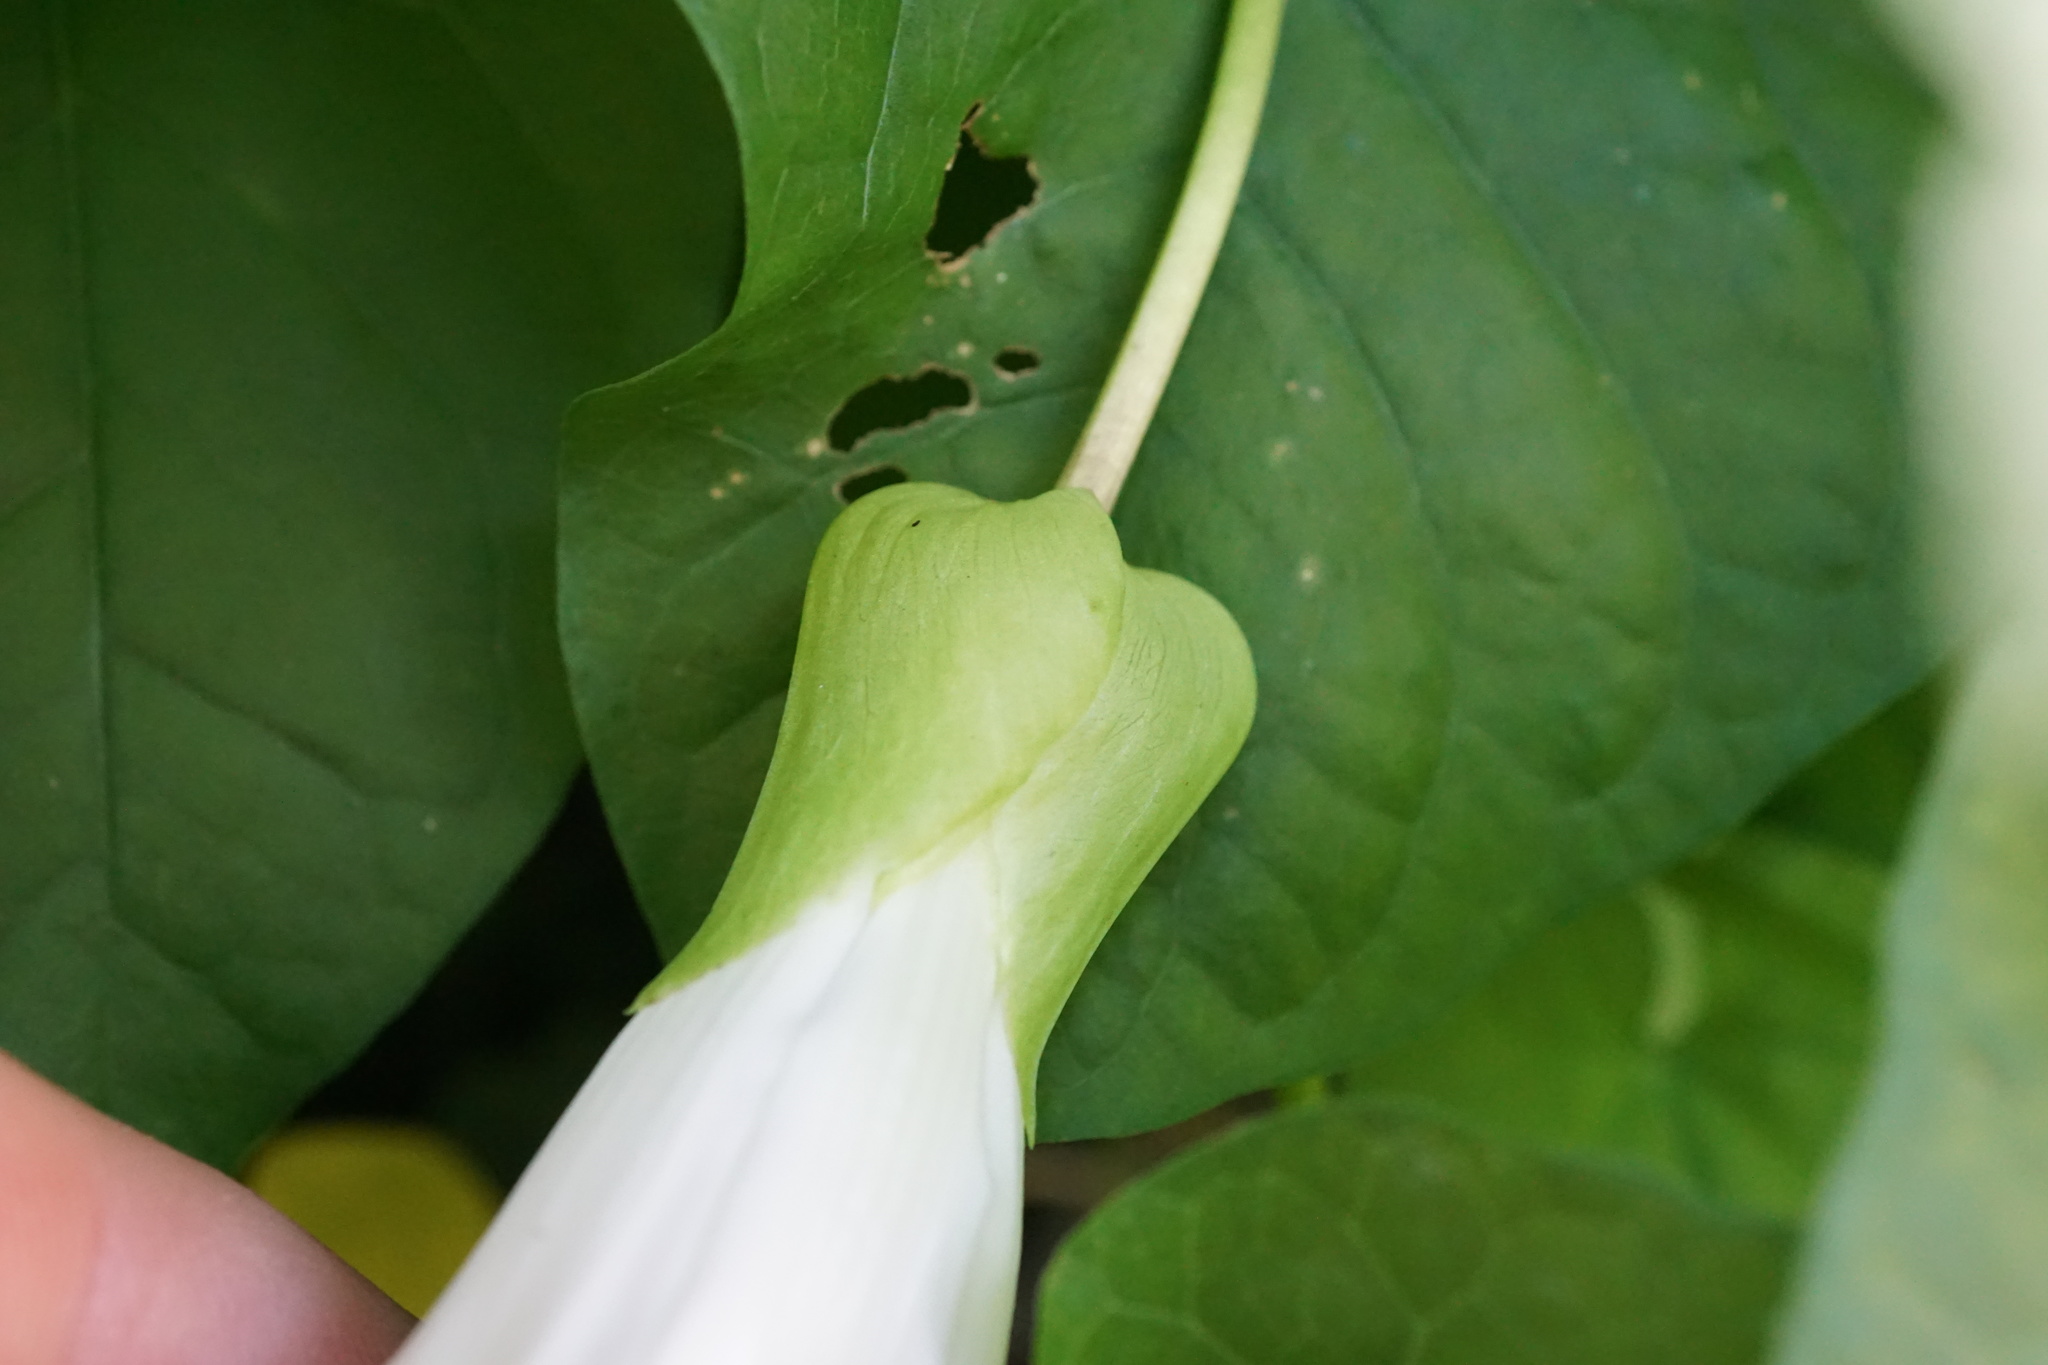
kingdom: Plantae
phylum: Tracheophyta
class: Magnoliopsida
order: Solanales
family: Convolvulaceae
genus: Calystegia
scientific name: Calystegia silvatica
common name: Large bindweed
